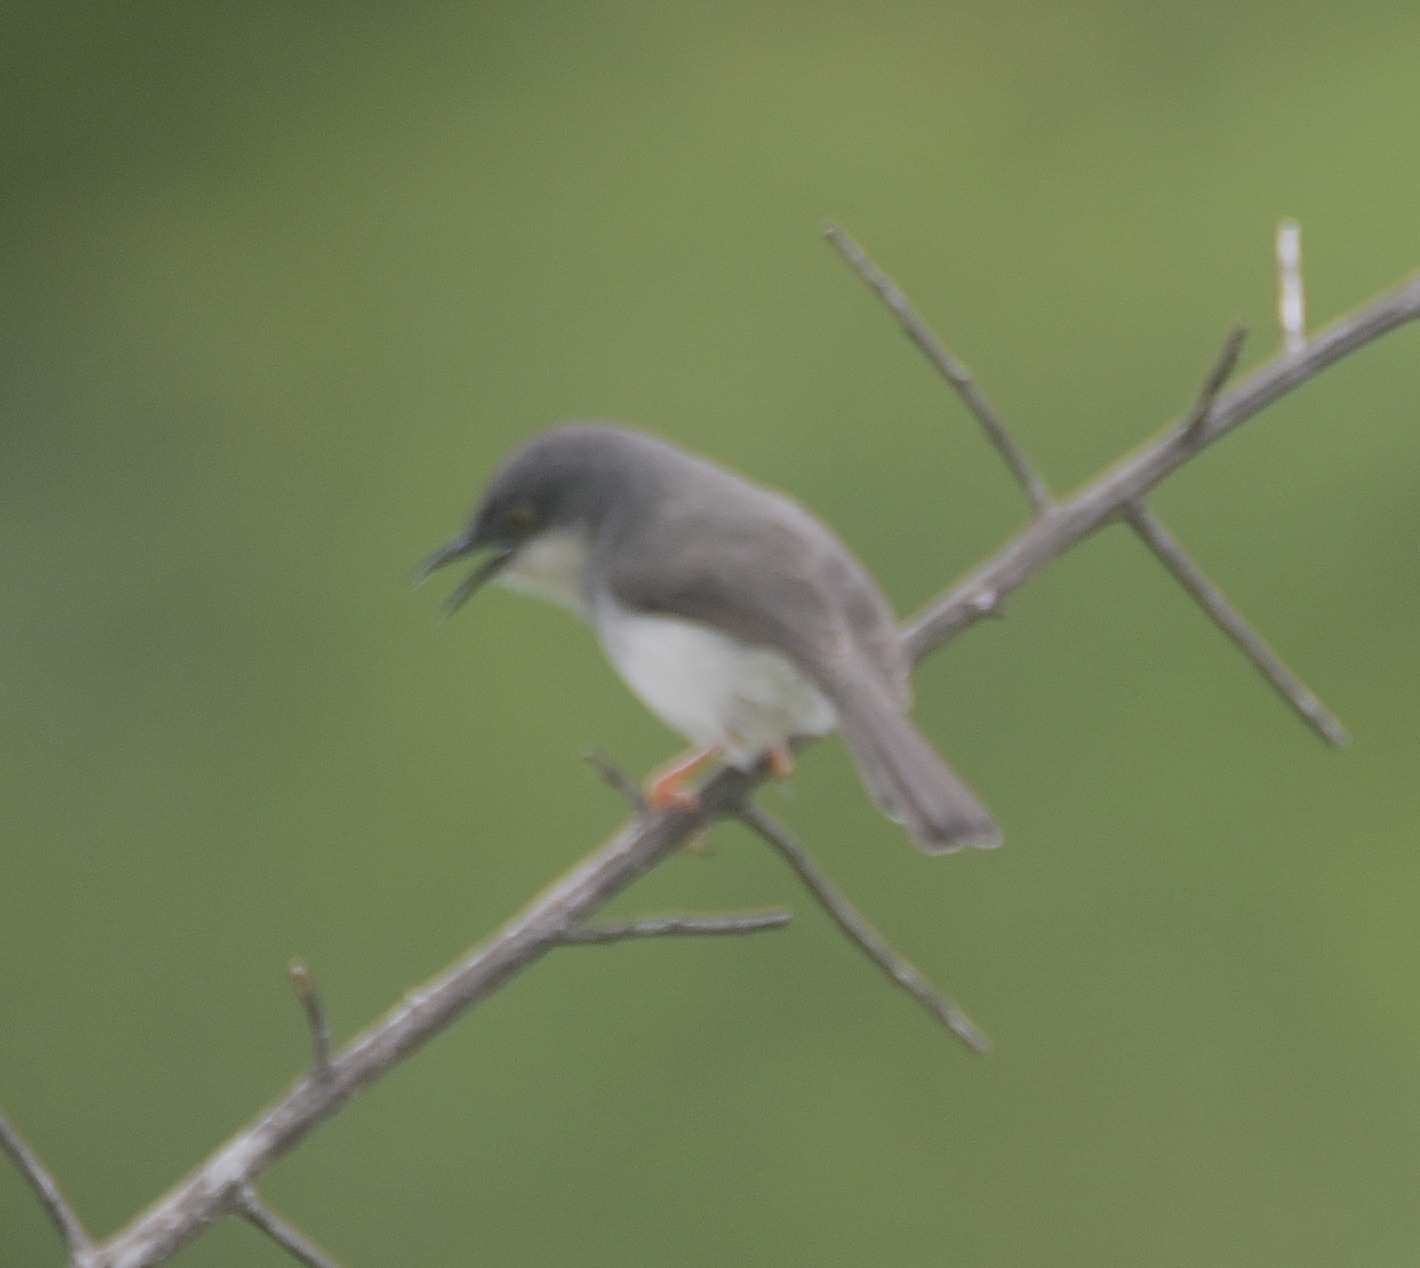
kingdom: Animalia
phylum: Chordata
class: Aves
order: Passeriformes
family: Cisticolidae
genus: Prinia
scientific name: Prinia hodgsonii
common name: Grey-breasted prinia
